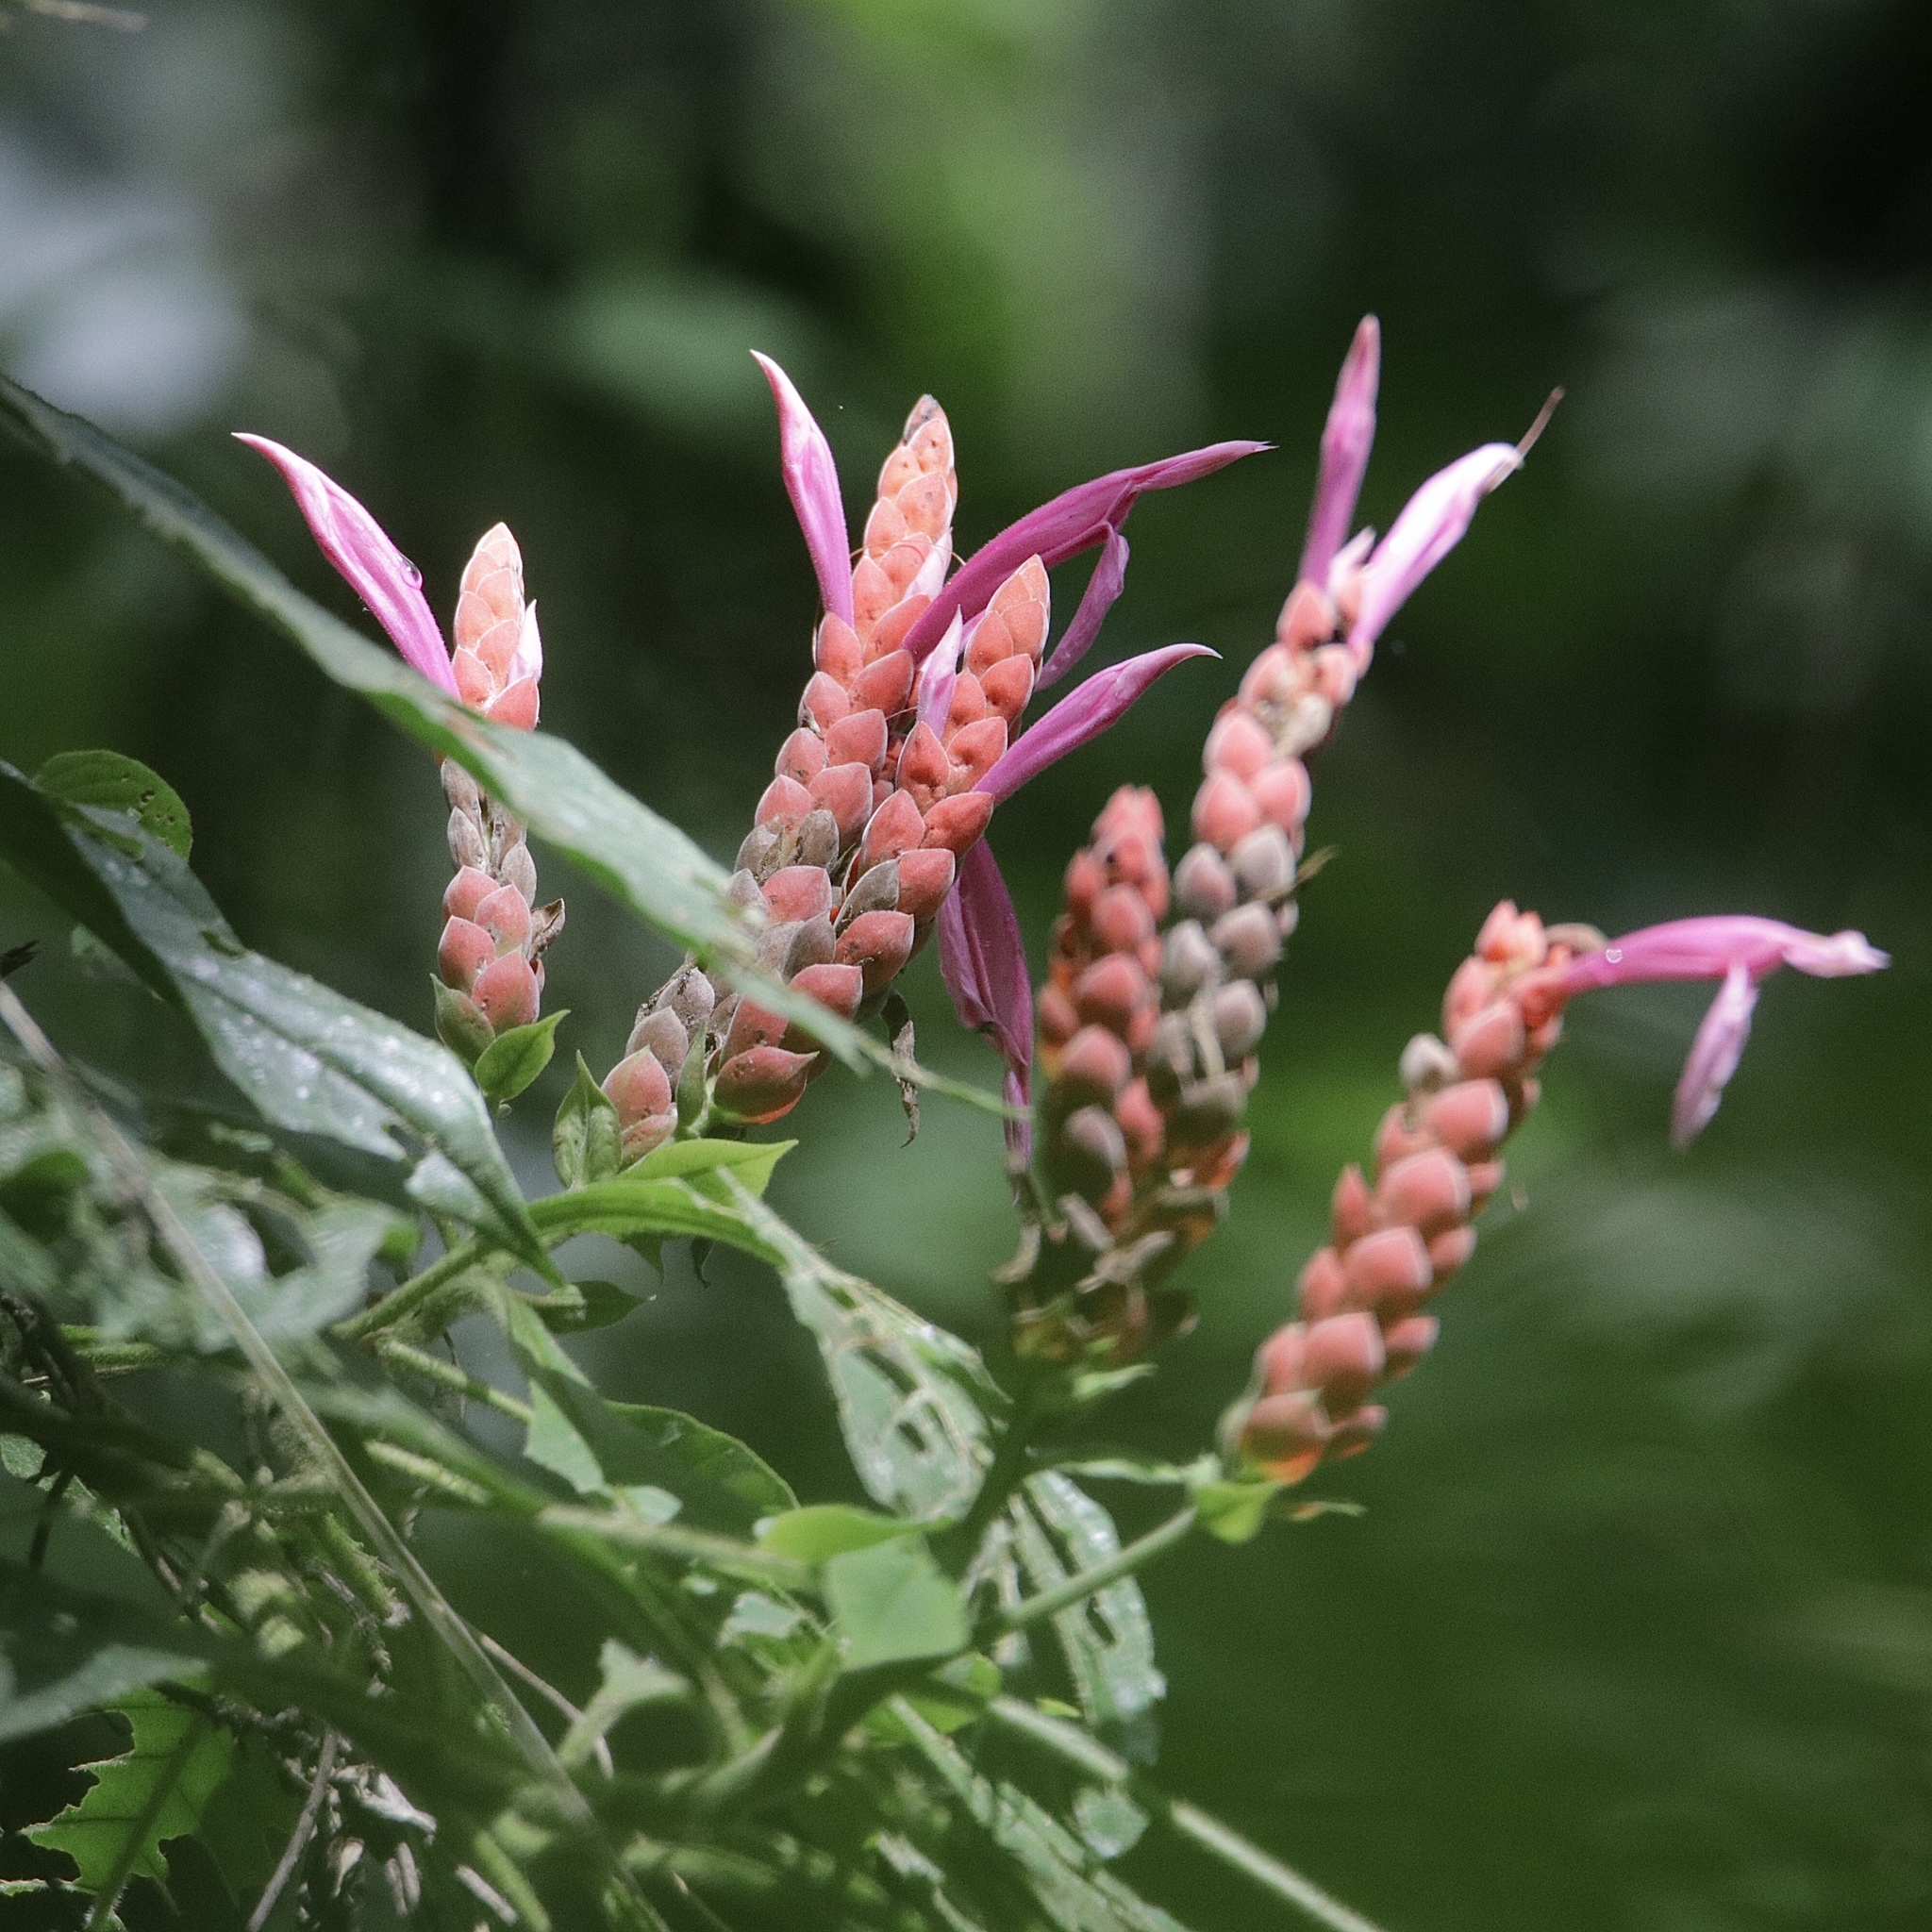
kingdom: Plantae
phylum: Tracheophyta
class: Magnoliopsida
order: Lamiales
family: Acanthaceae
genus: Aphelandra
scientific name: Aphelandra sinclairiana
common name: Coral aphelandra
